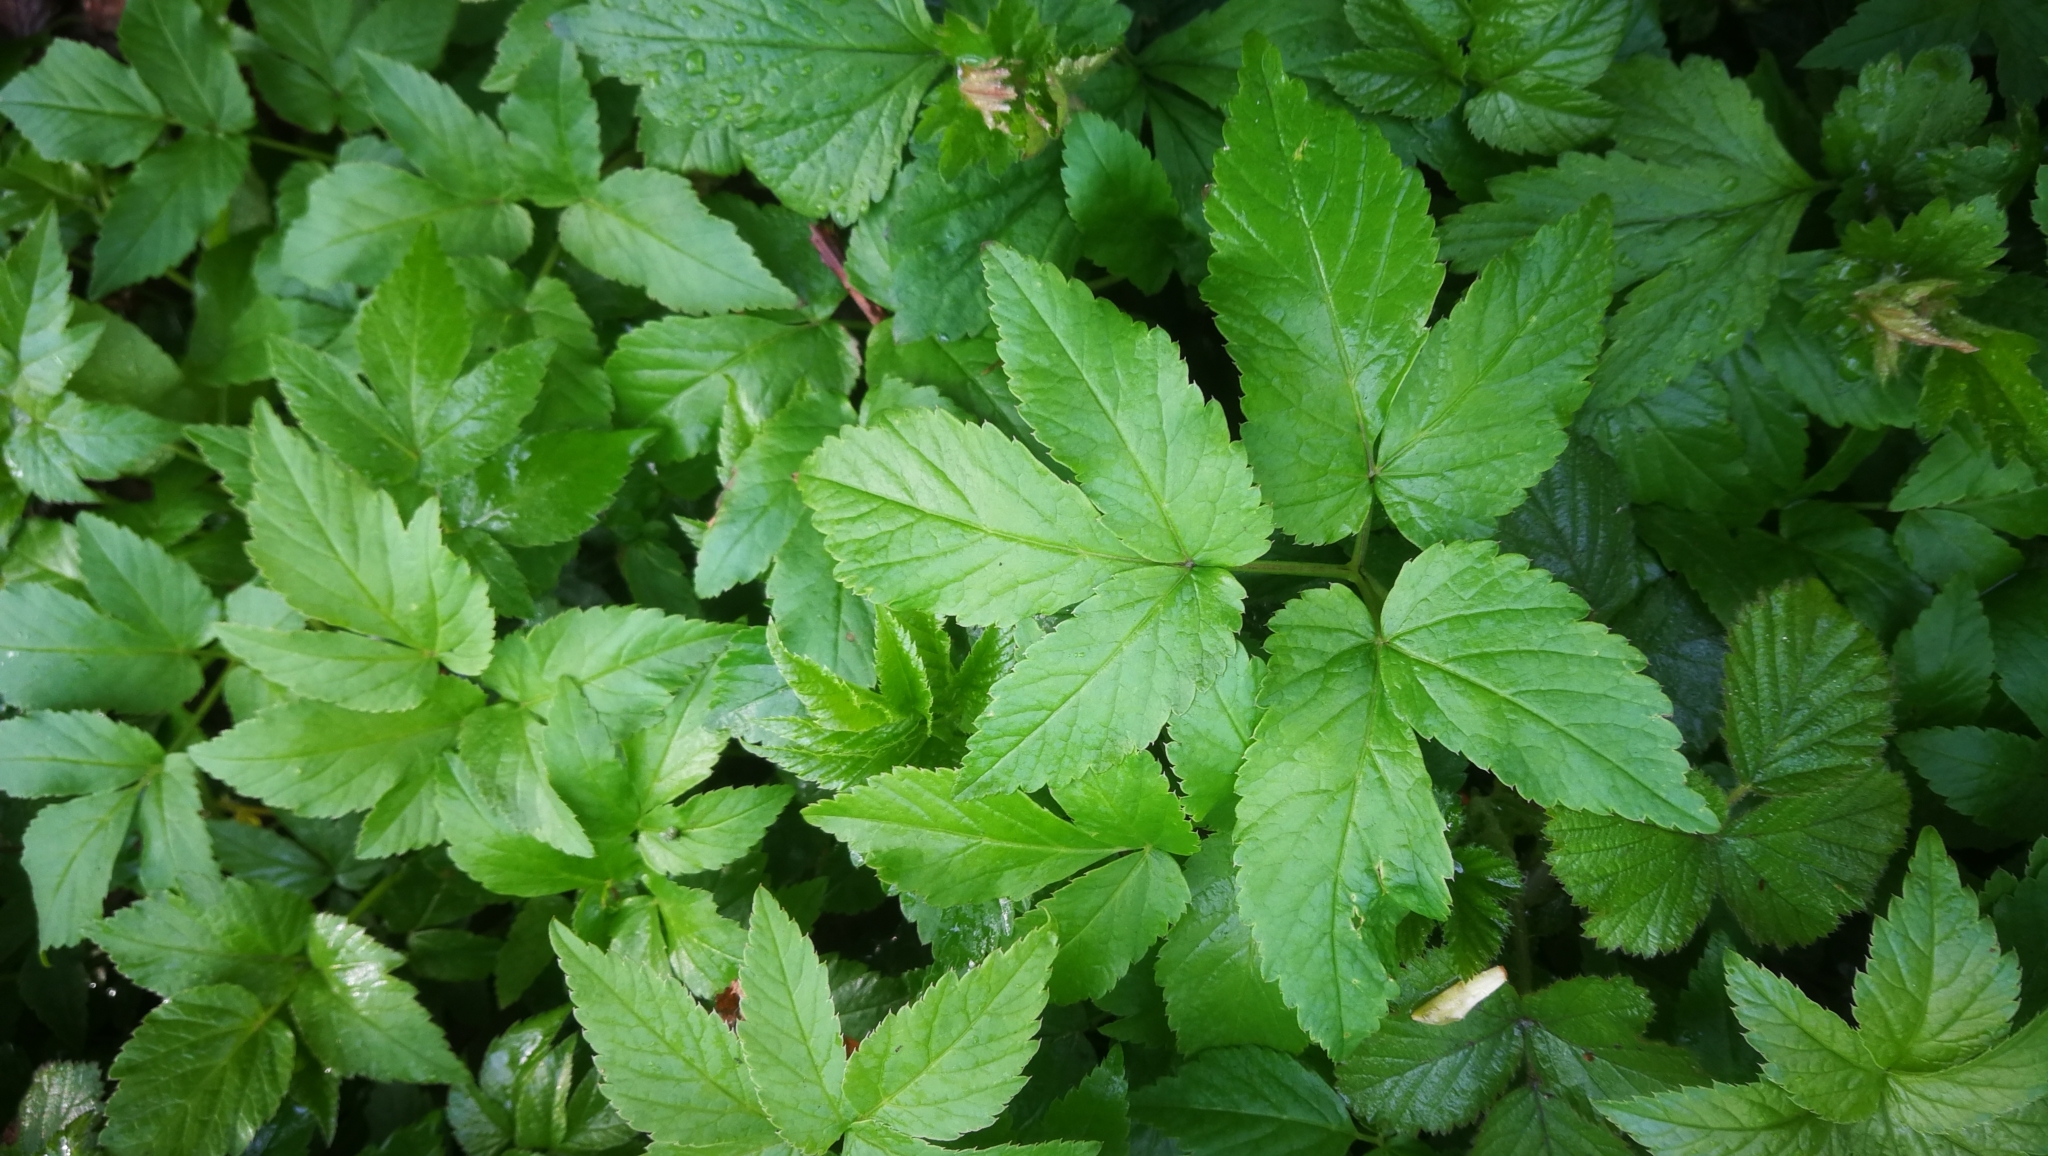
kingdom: Plantae
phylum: Tracheophyta
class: Magnoliopsida
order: Apiales
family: Apiaceae
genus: Aegopodium
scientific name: Aegopodium podagraria
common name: Ground-elder
